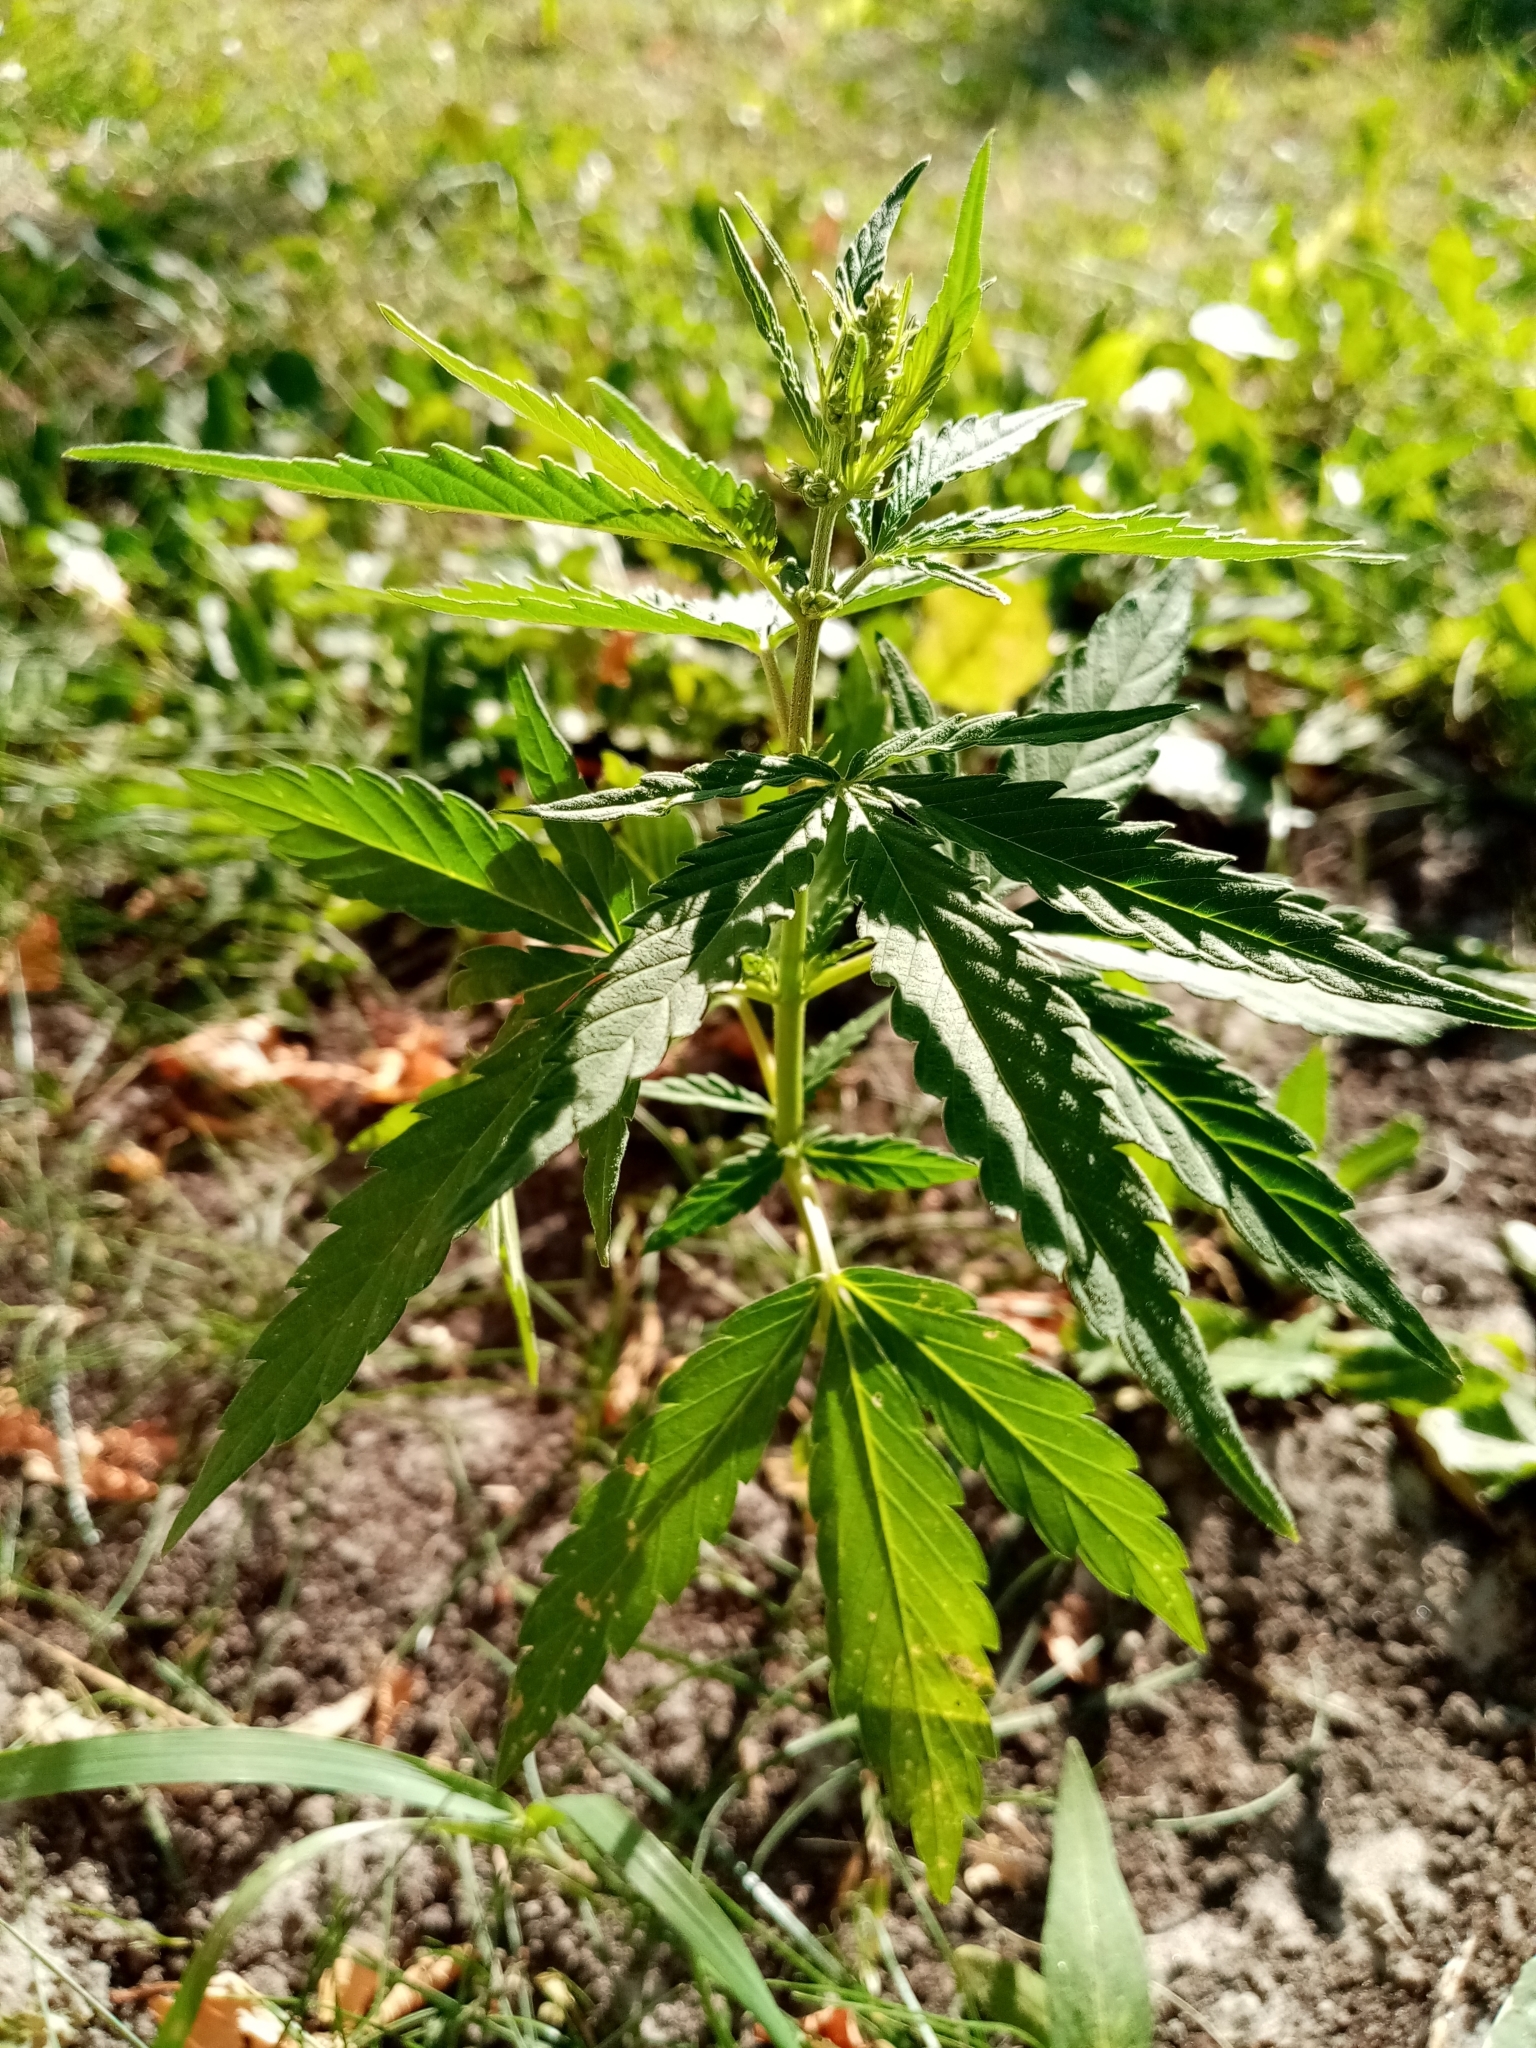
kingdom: Plantae
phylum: Tracheophyta
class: Magnoliopsida
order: Rosales
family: Cannabaceae
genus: Cannabis
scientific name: Cannabis sativa
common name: Hemp
